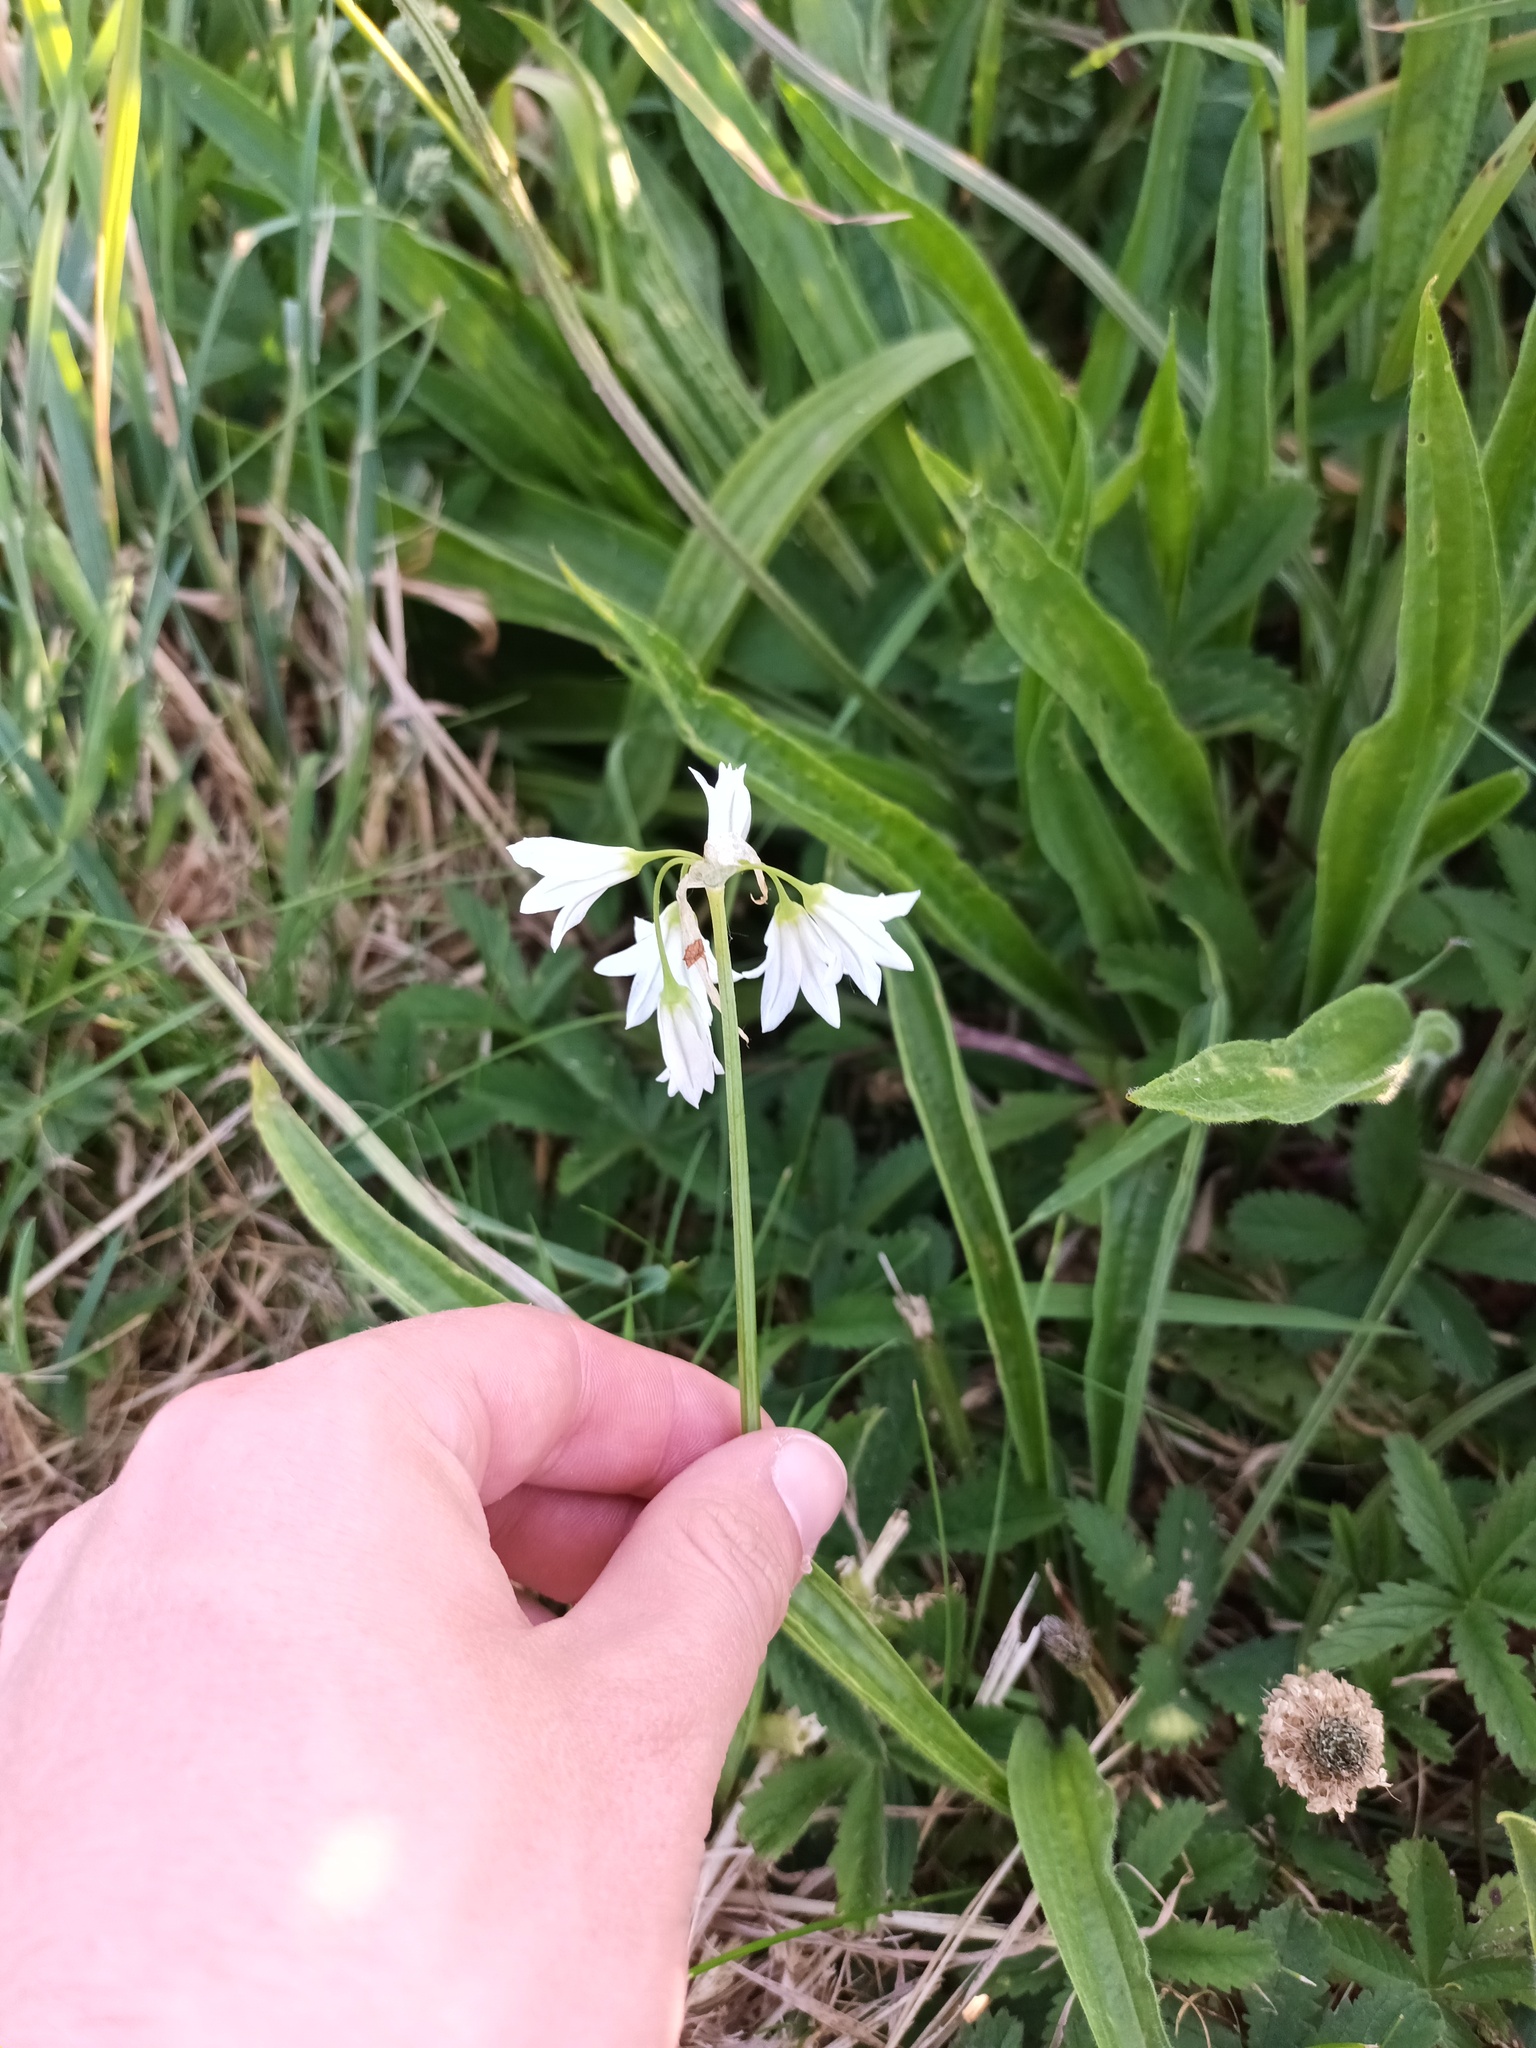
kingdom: Plantae
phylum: Tracheophyta
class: Liliopsida
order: Asparagales
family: Amaryllidaceae
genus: Allium
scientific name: Allium triquetrum
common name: Three-cornered garlic
